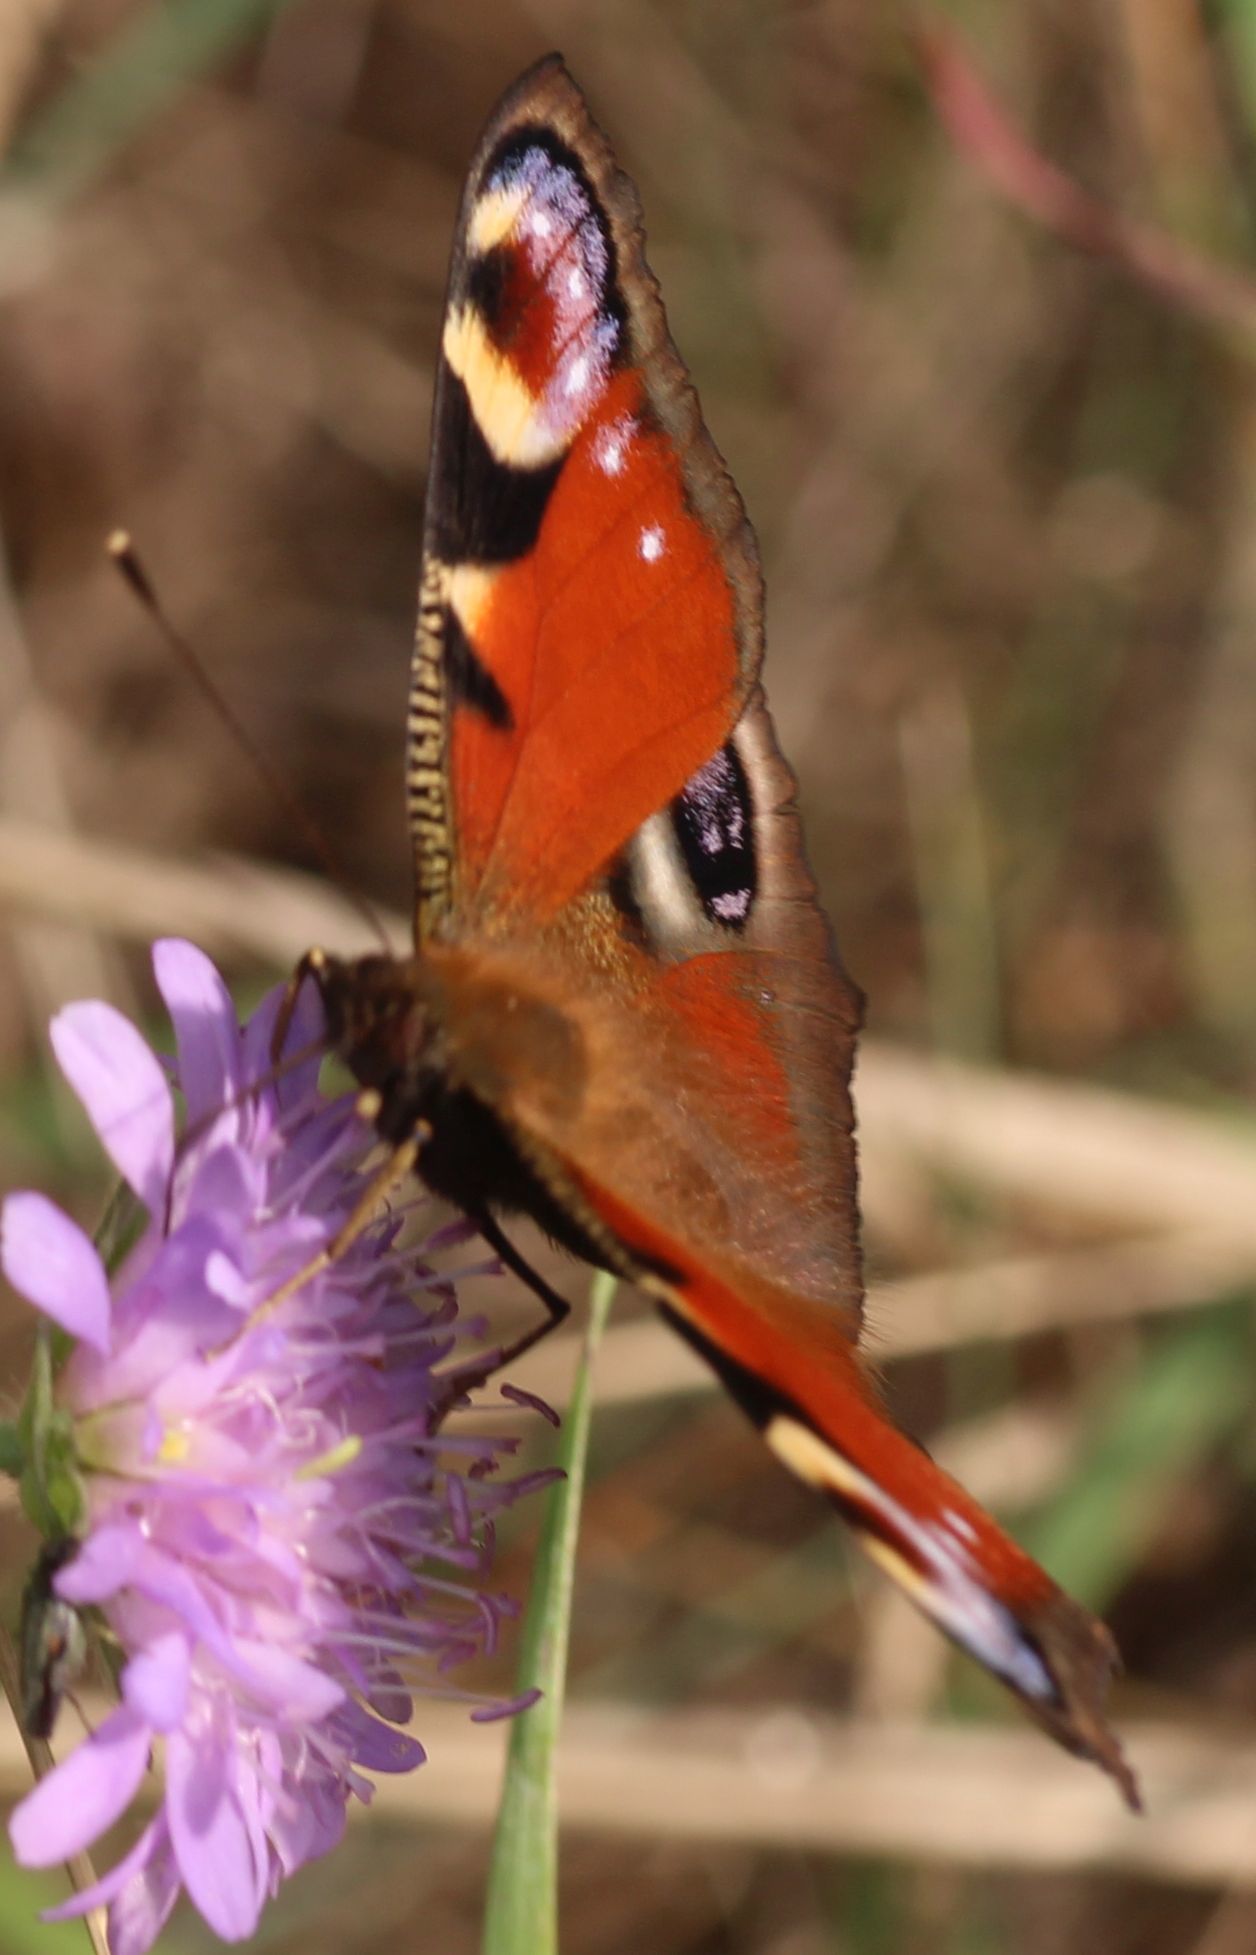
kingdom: Animalia
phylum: Arthropoda
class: Insecta
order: Lepidoptera
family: Nymphalidae
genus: Aglais
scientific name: Aglais io
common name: Peacock
